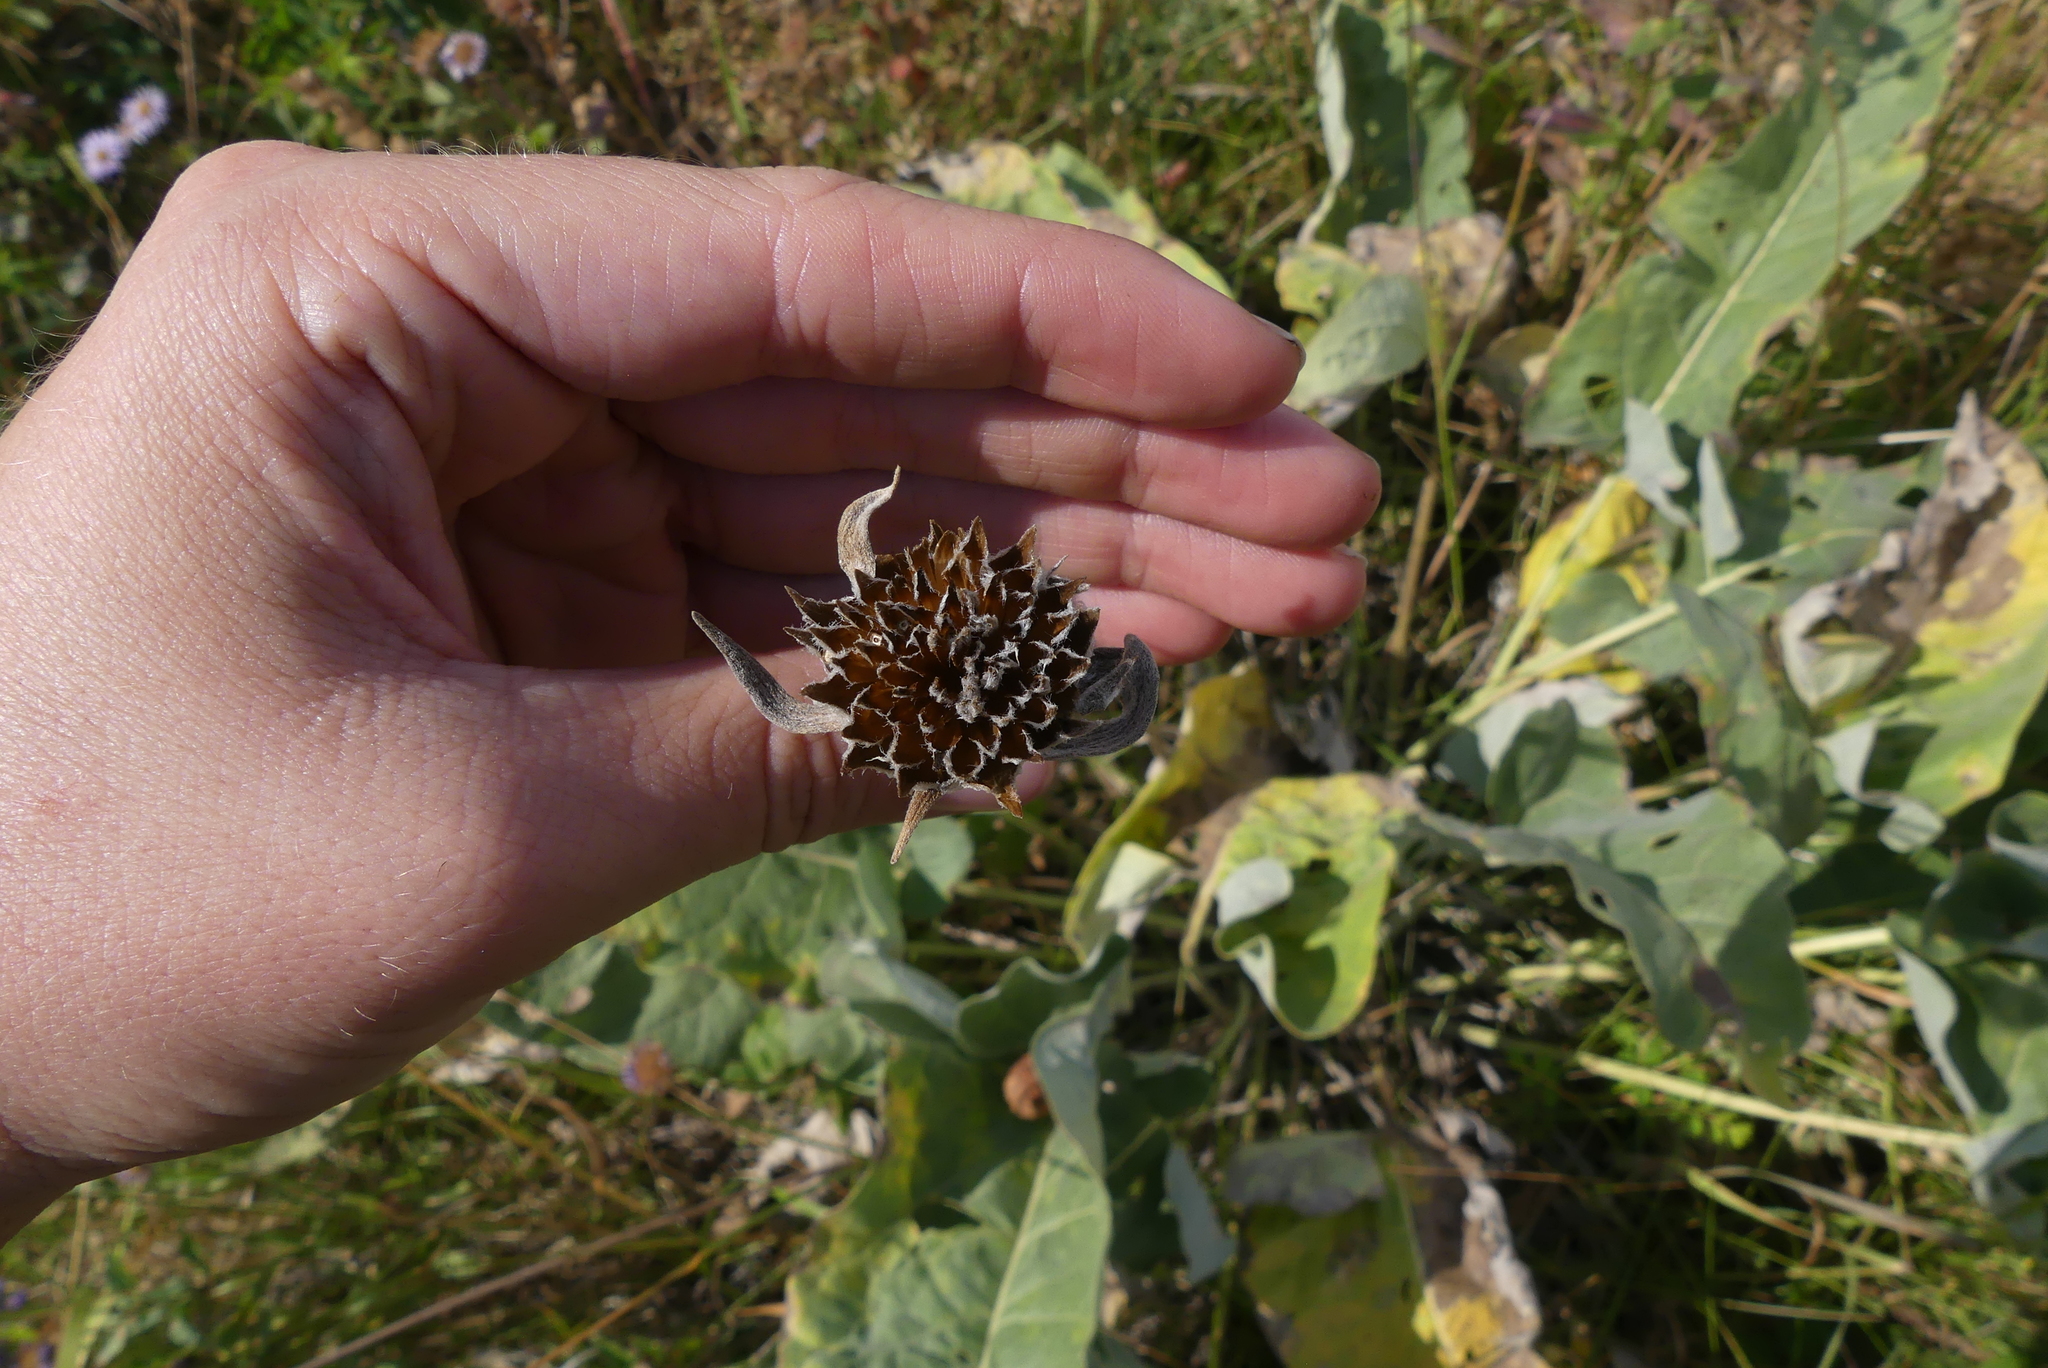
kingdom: Plantae
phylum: Tracheophyta
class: Magnoliopsida
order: Asterales
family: Asteraceae
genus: Wyethia
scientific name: Wyethia sagittata
